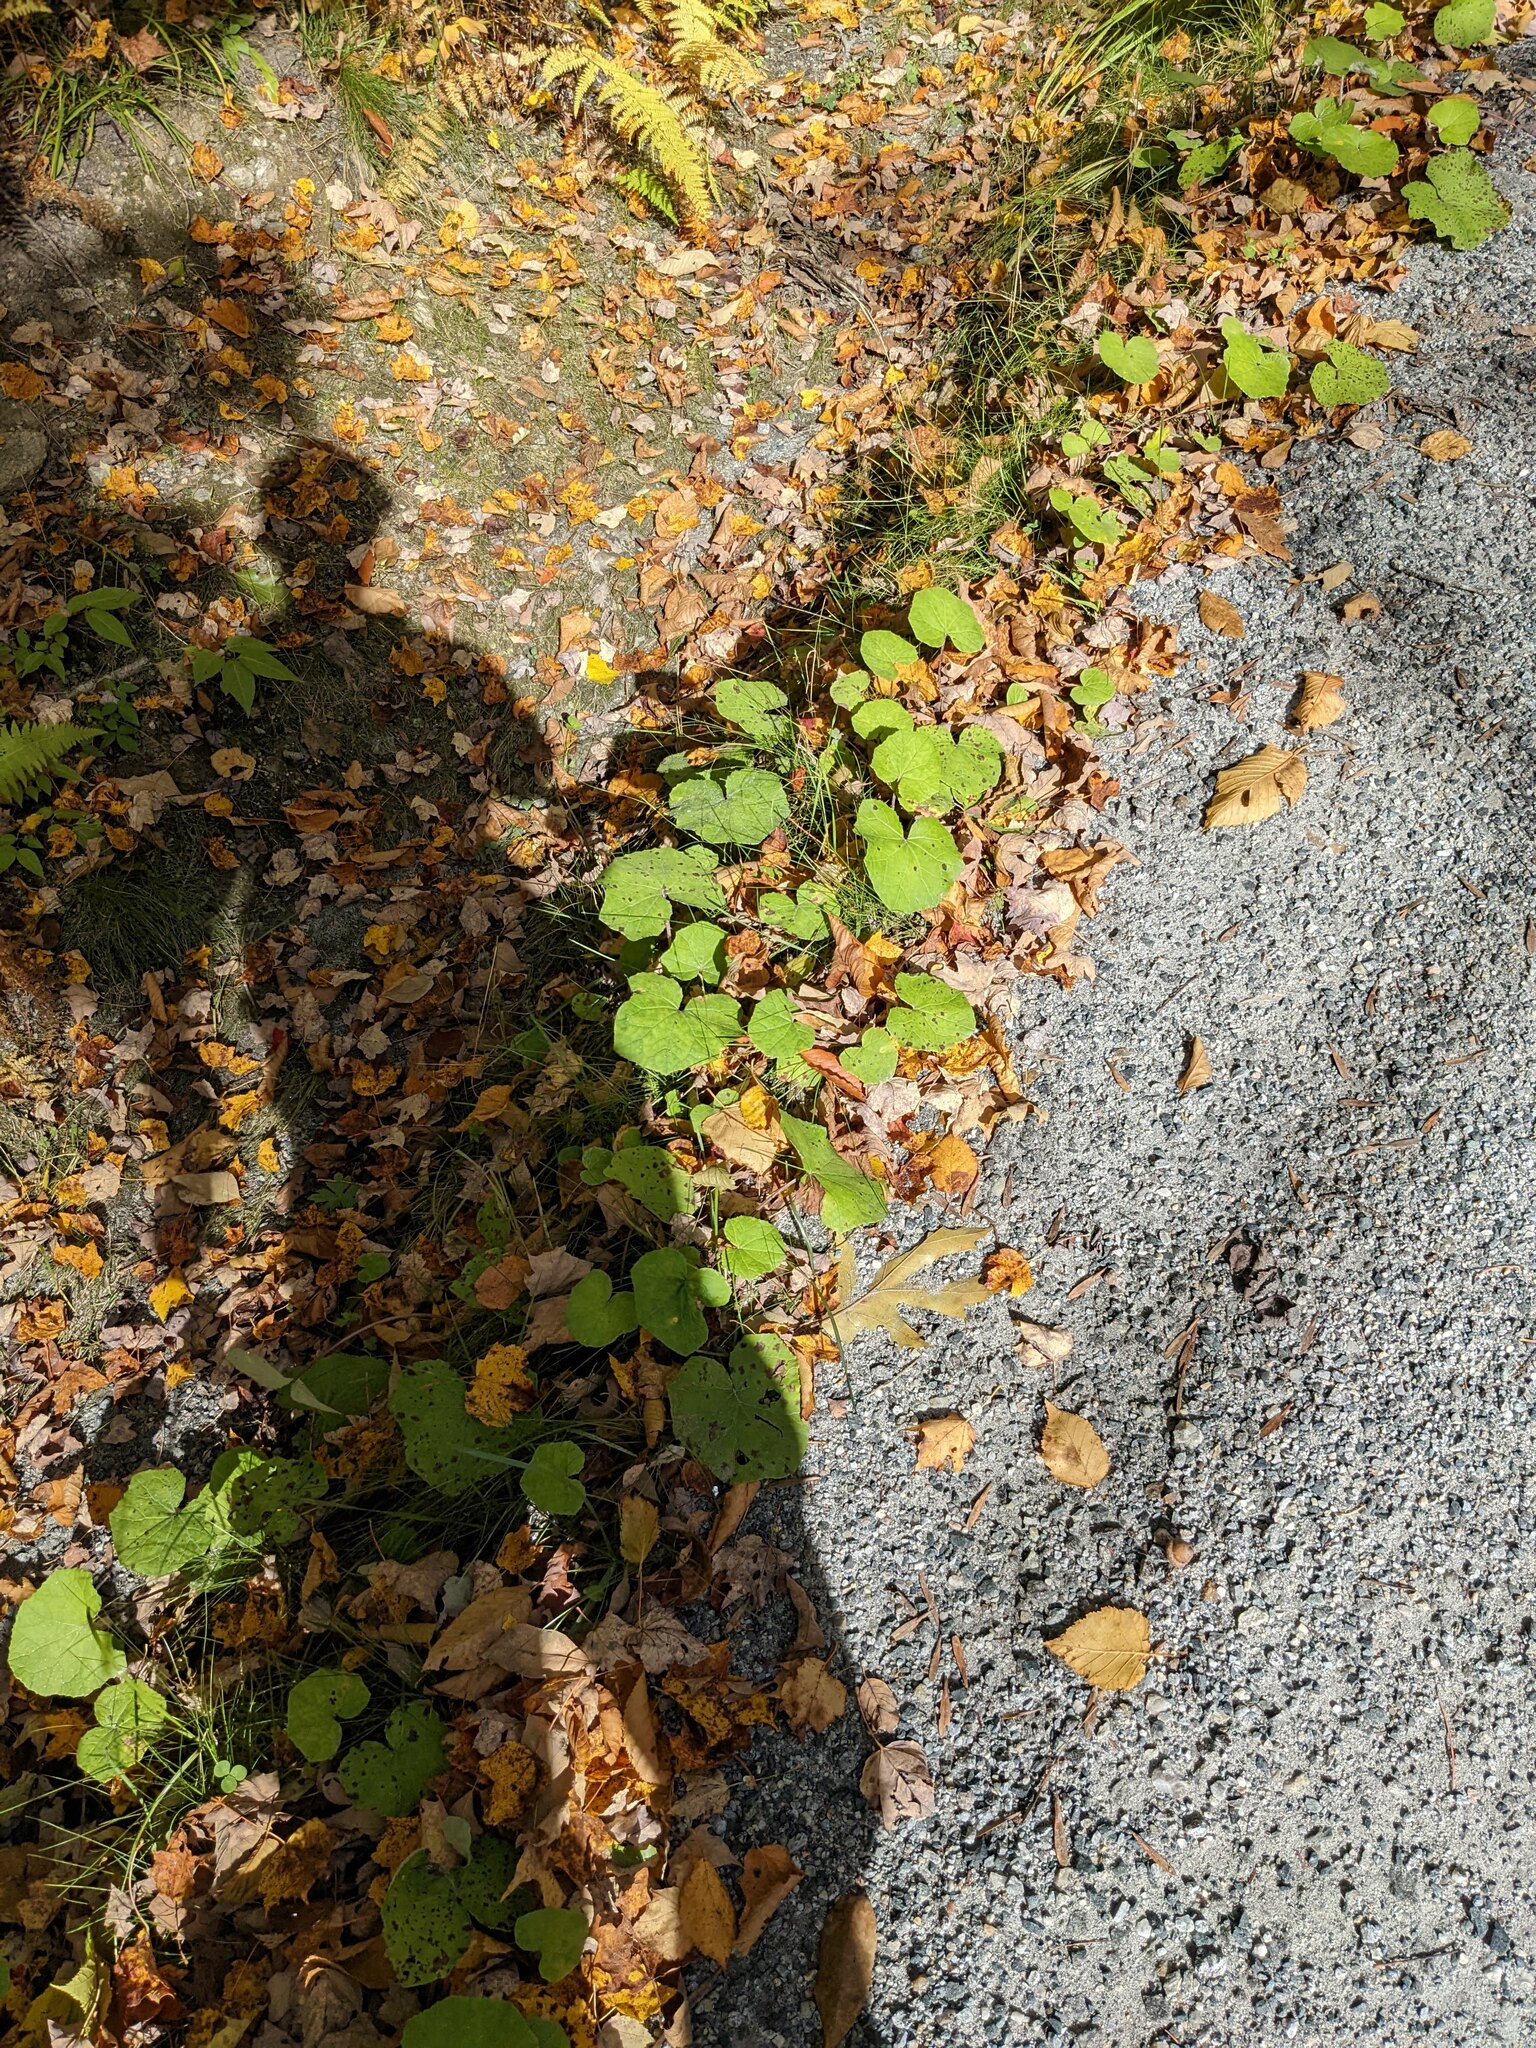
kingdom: Plantae
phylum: Tracheophyta
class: Magnoliopsida
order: Asterales
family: Asteraceae
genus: Tussilago
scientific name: Tussilago farfara
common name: Coltsfoot
